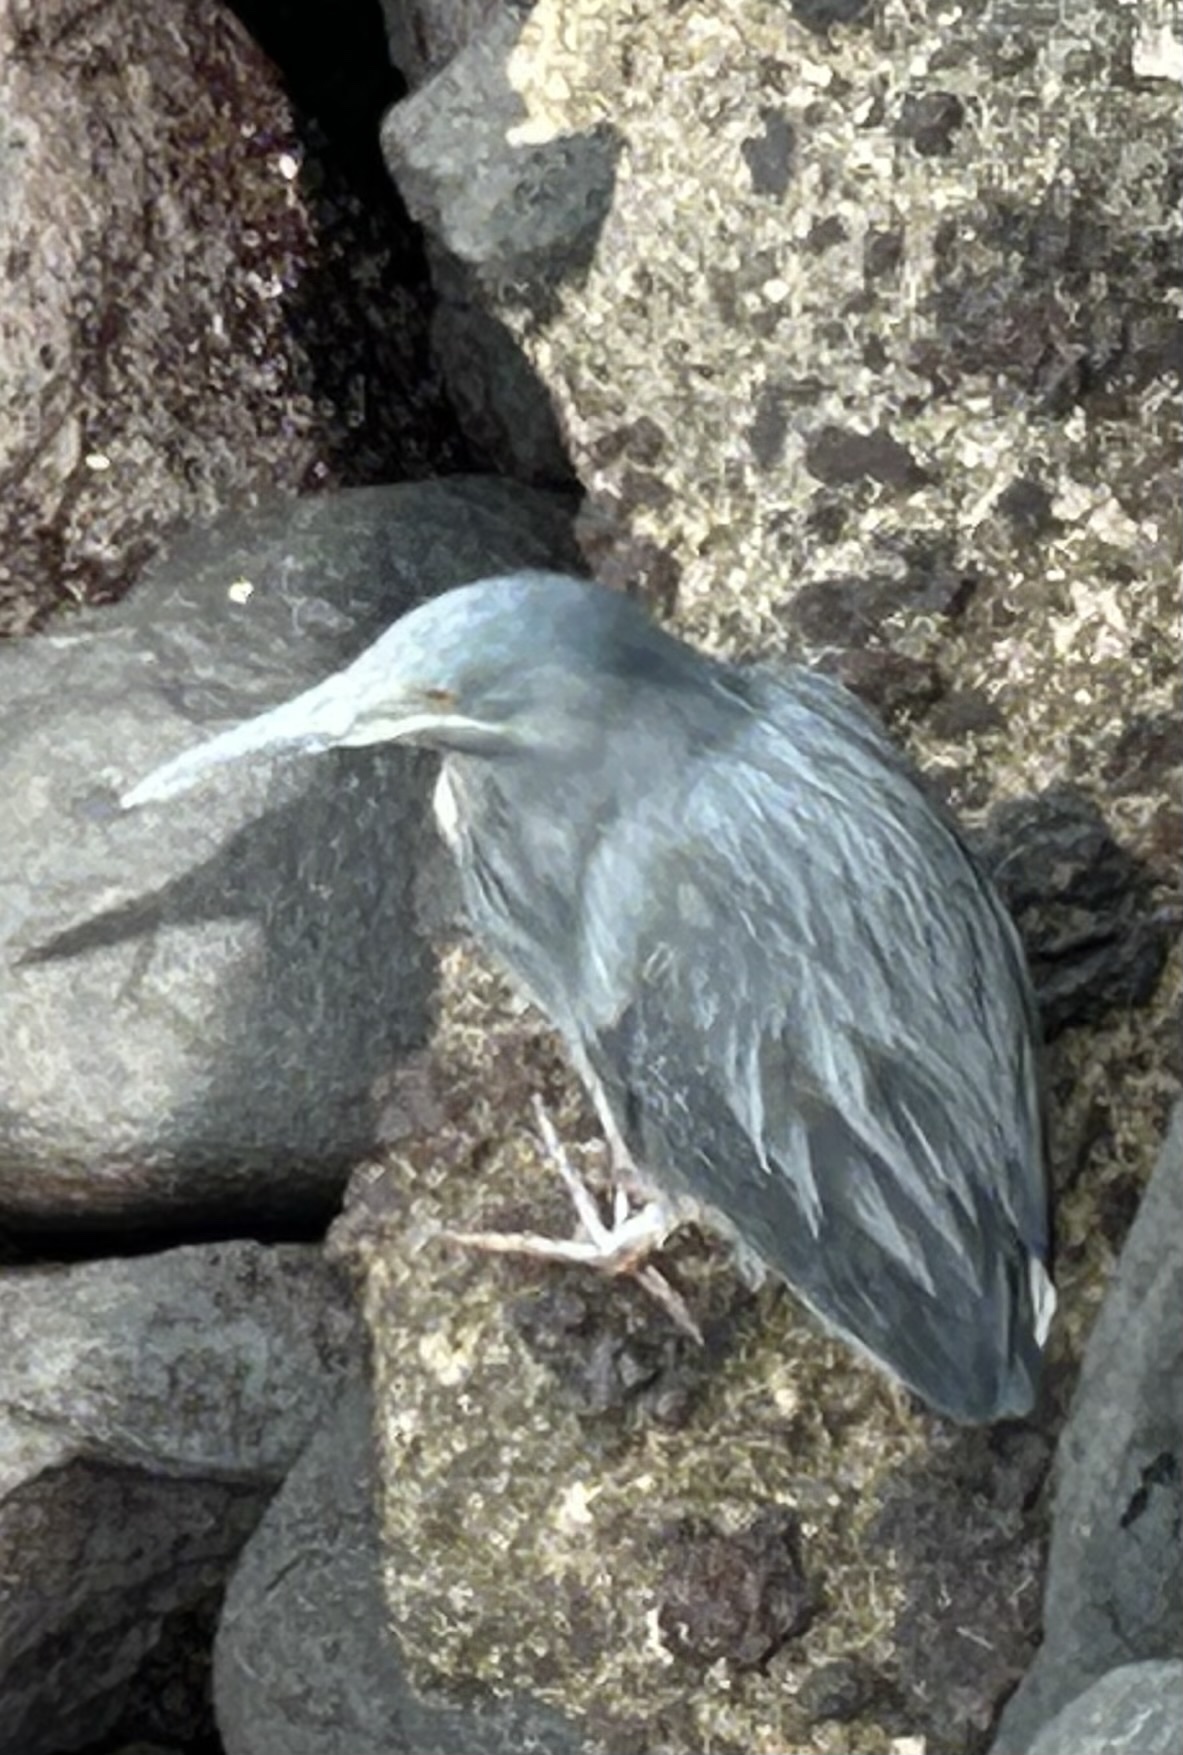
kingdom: Animalia
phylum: Chordata
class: Aves
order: Pelecaniformes
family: Ardeidae
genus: Butorides
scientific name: Butorides striata
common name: Striated heron
